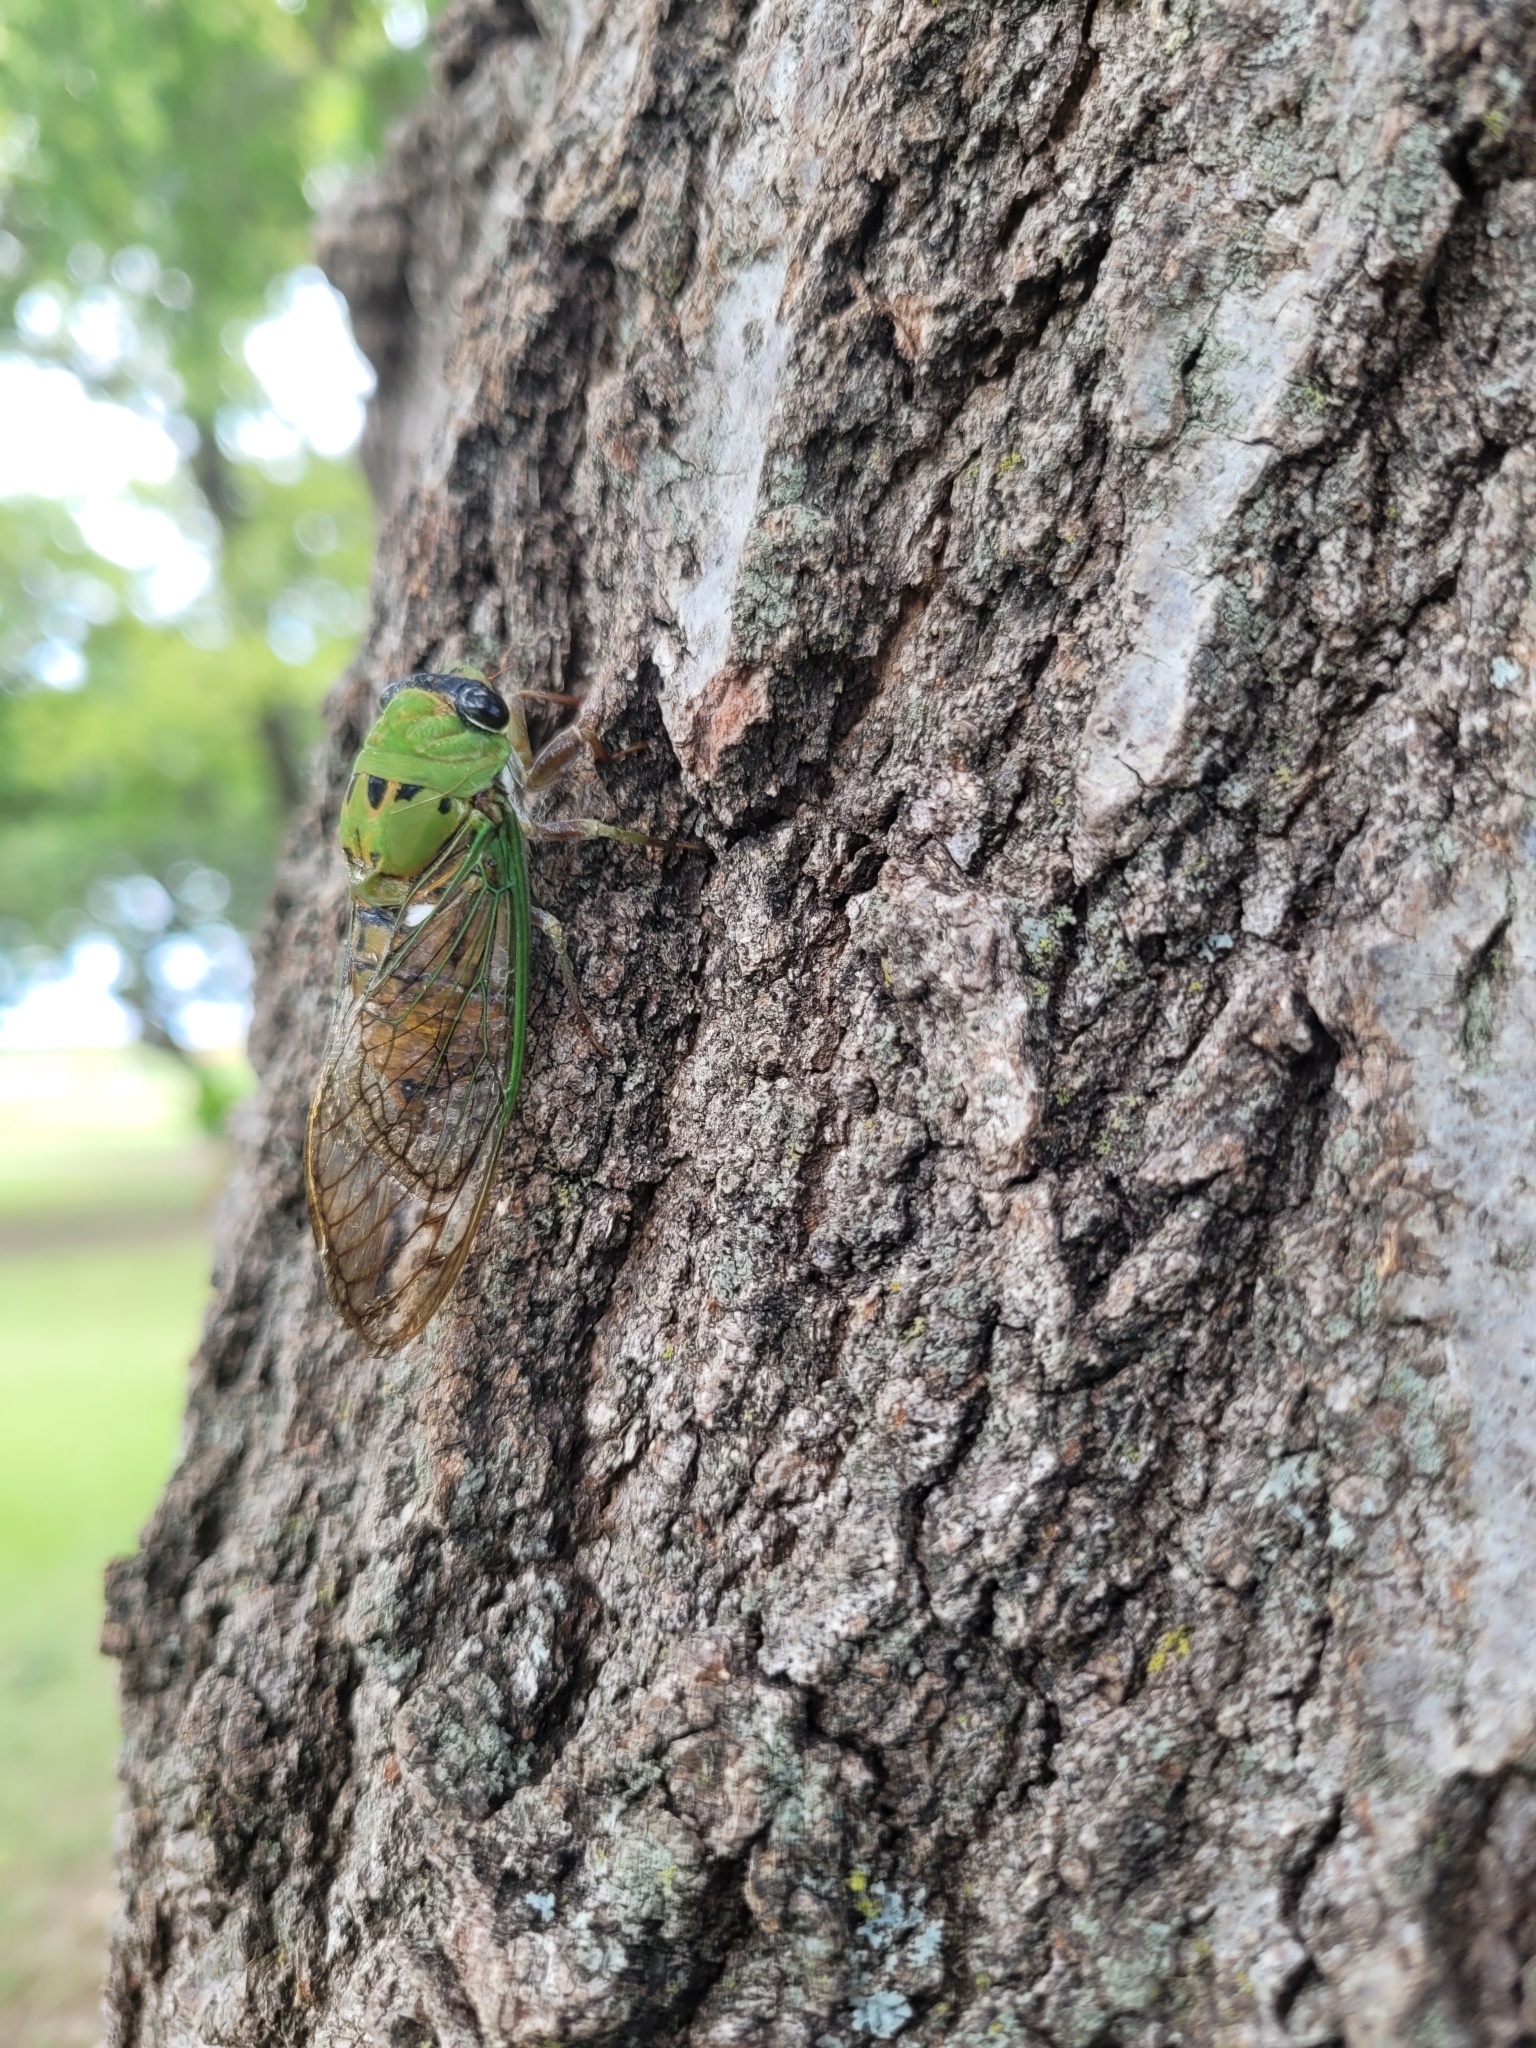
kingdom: Animalia
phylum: Arthropoda
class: Insecta
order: Hemiptera
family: Cicadidae
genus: Neotibicen
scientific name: Neotibicen superbus
